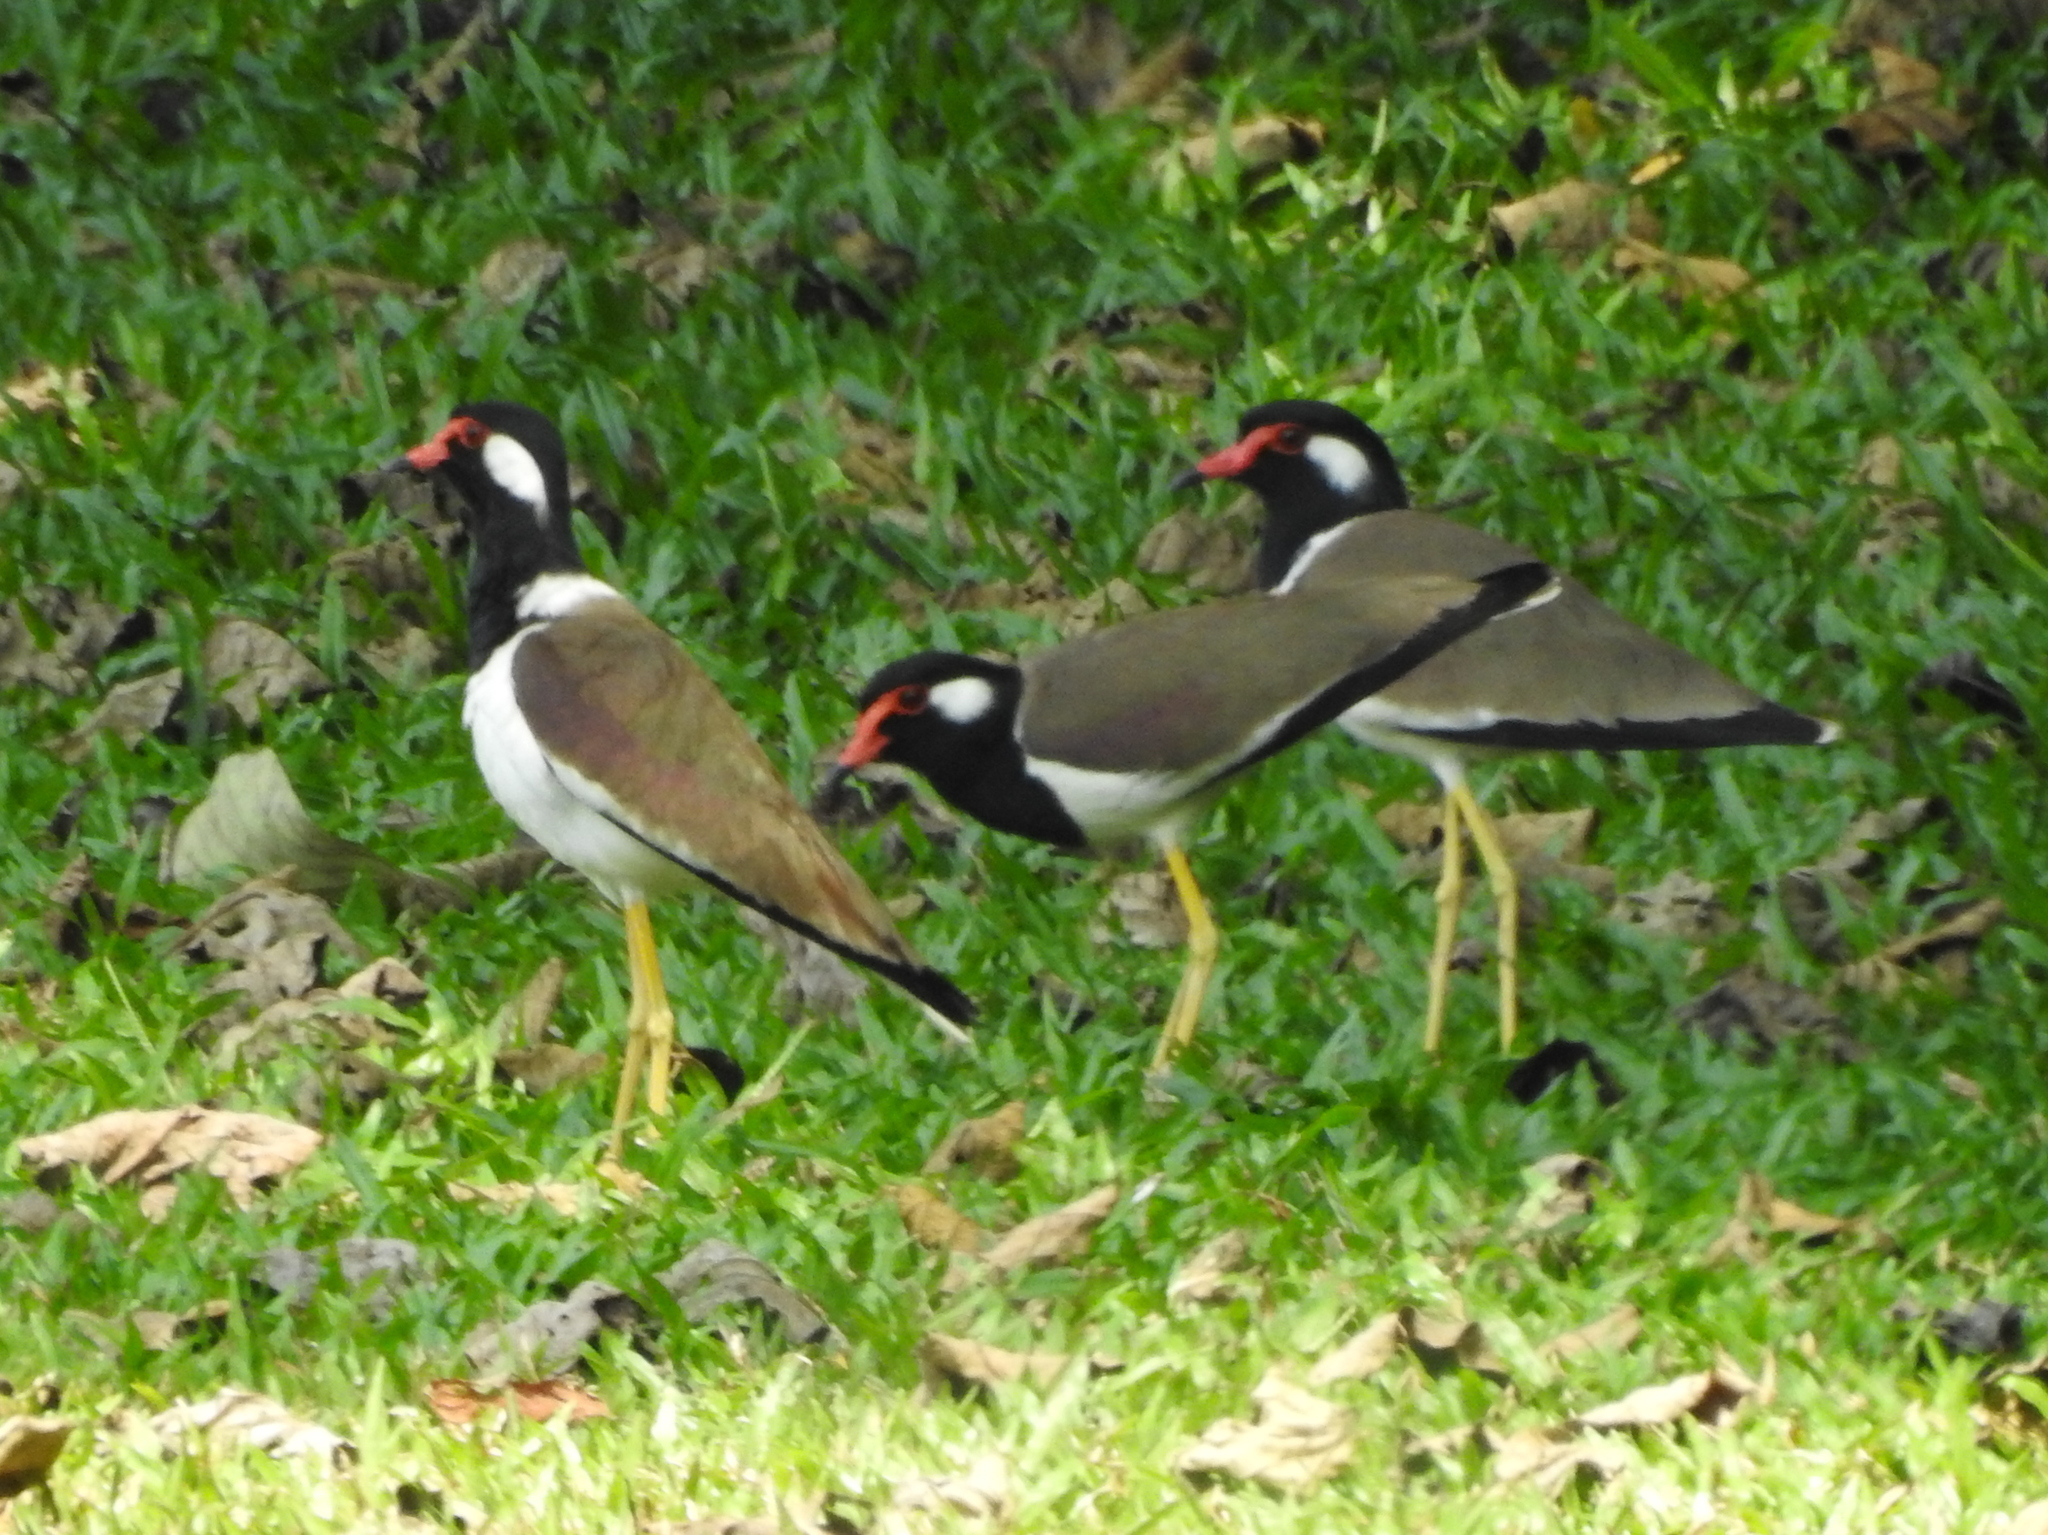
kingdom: Animalia
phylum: Chordata
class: Aves
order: Charadriiformes
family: Charadriidae
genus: Vanellus
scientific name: Vanellus indicus
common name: Red-wattled lapwing
